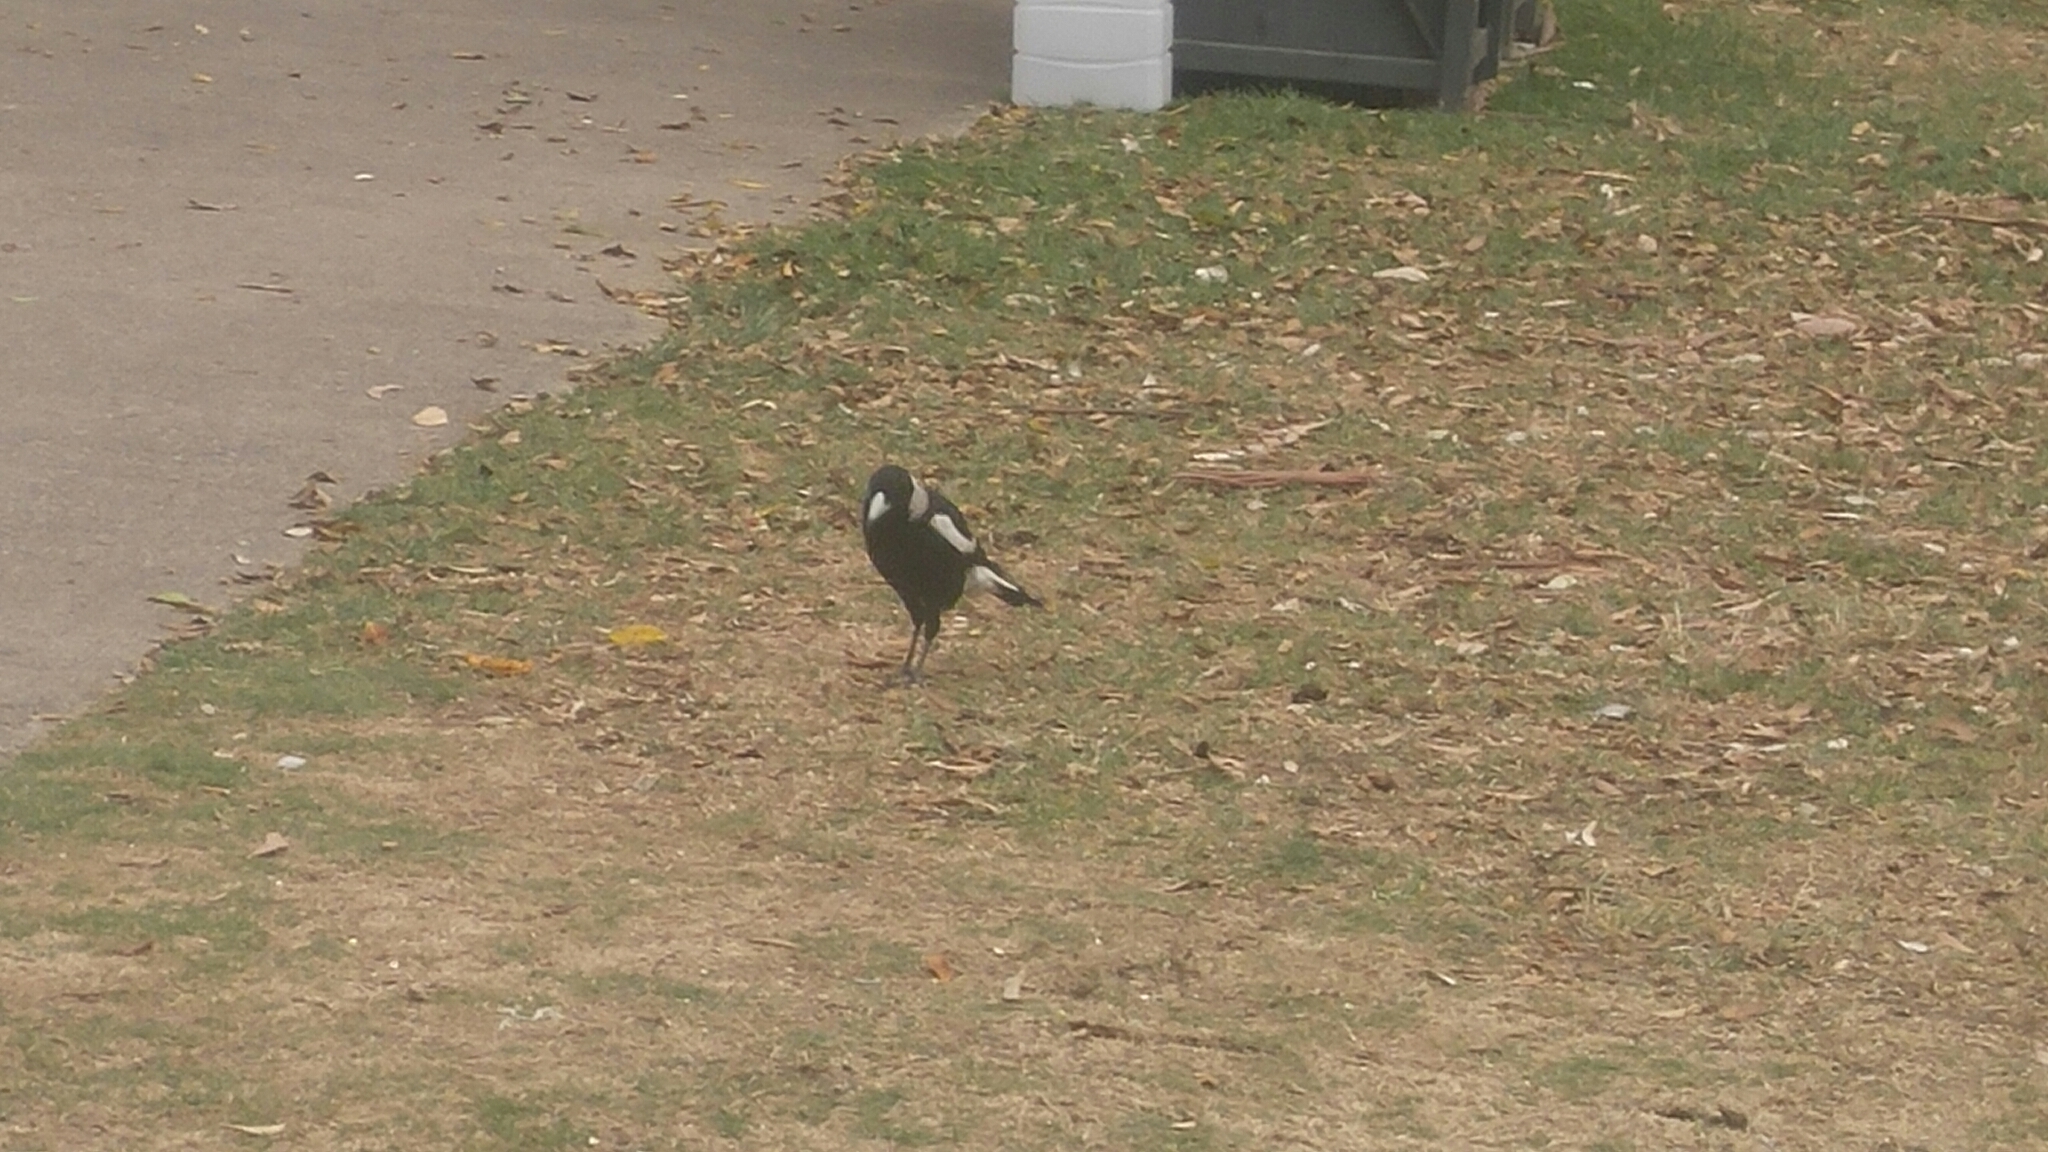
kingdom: Animalia
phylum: Chordata
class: Aves
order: Passeriformes
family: Cracticidae
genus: Gymnorhina
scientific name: Gymnorhina tibicen
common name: Australian magpie
